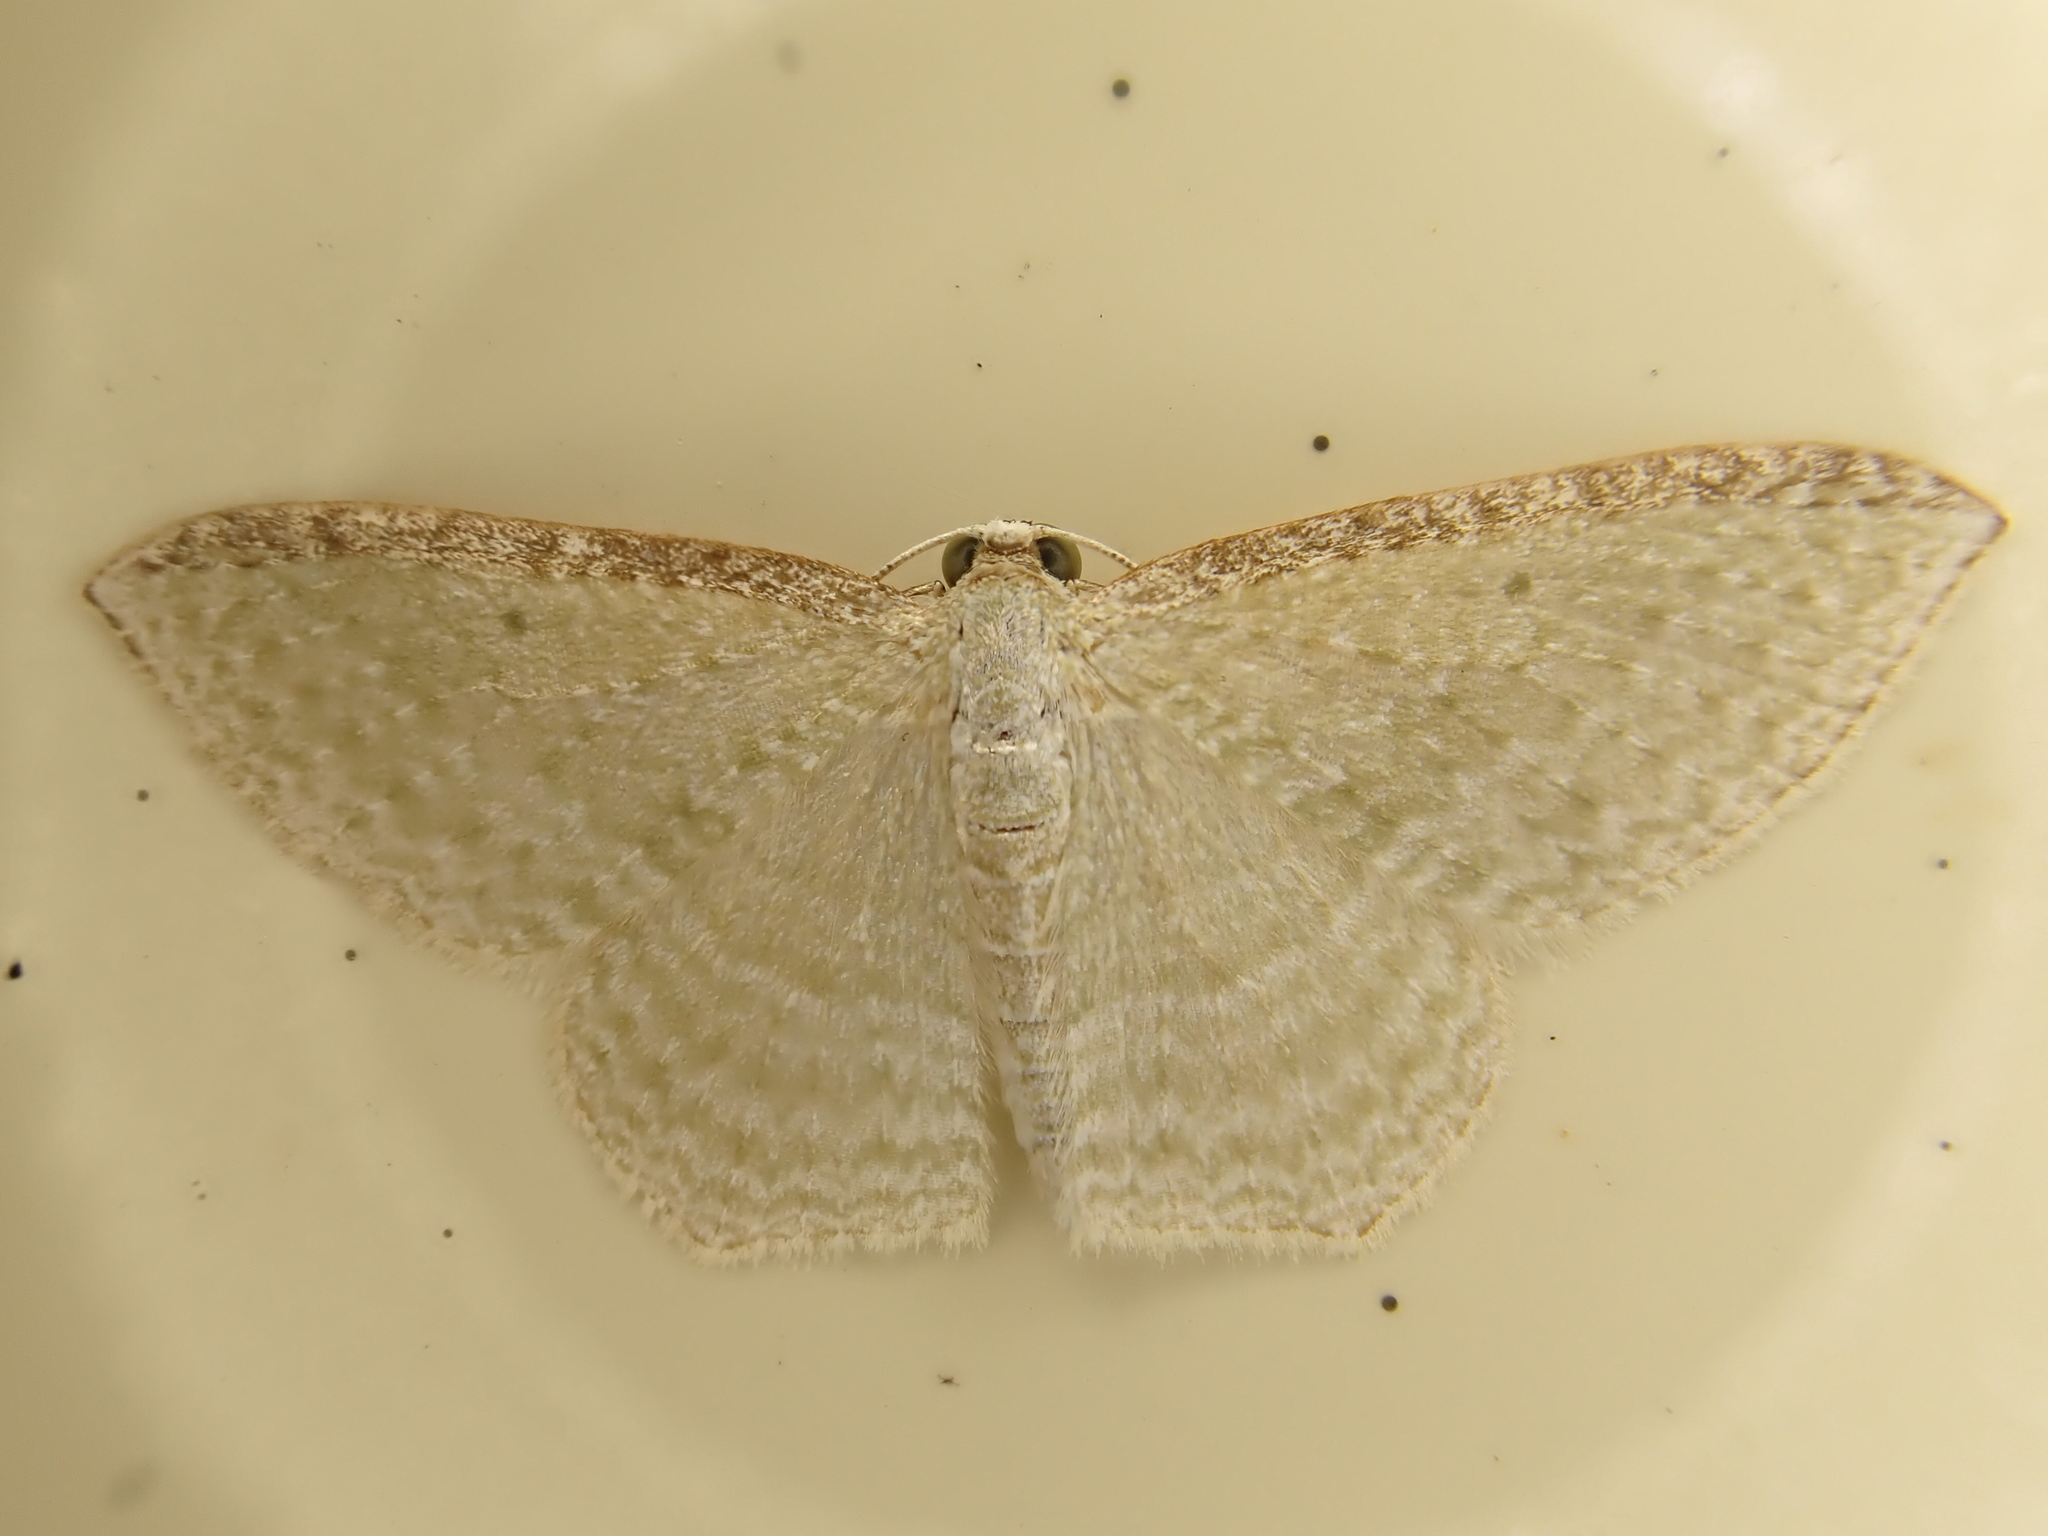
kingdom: Animalia
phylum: Arthropoda
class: Insecta
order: Lepidoptera
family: Geometridae
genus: Poecilasthena
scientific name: Poecilasthena pulchraria
